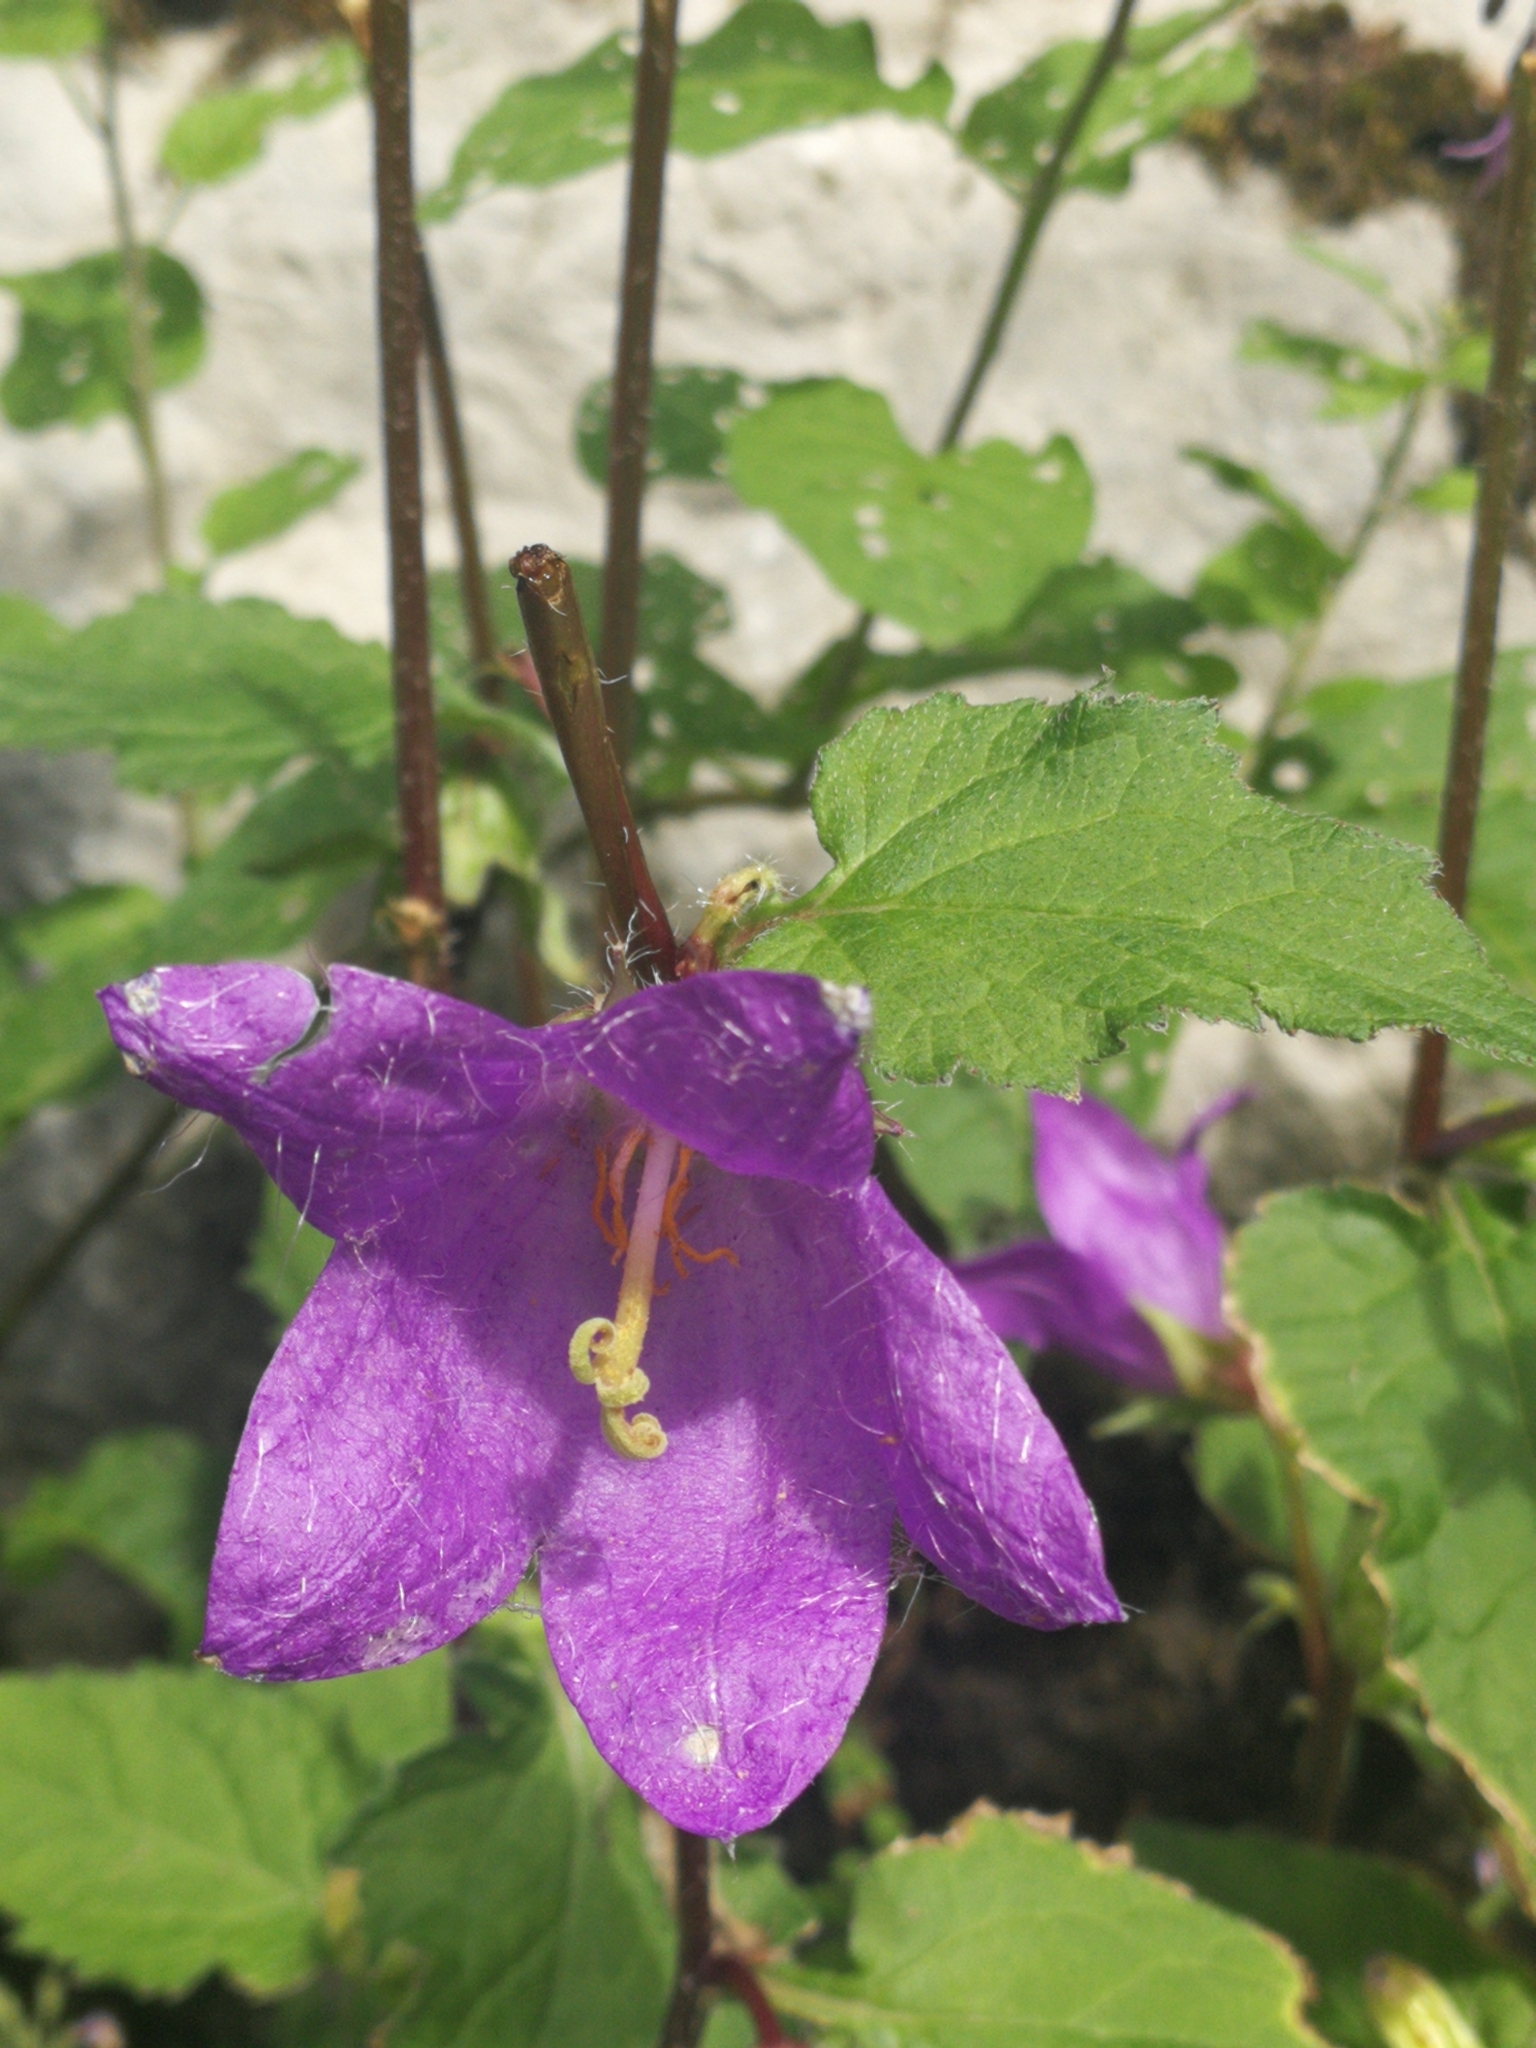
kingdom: Plantae
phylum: Tracheophyta
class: Magnoliopsida
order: Asterales
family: Campanulaceae
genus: Campanula
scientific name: Campanula trachelium
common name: Nettle-leaved bellflower
